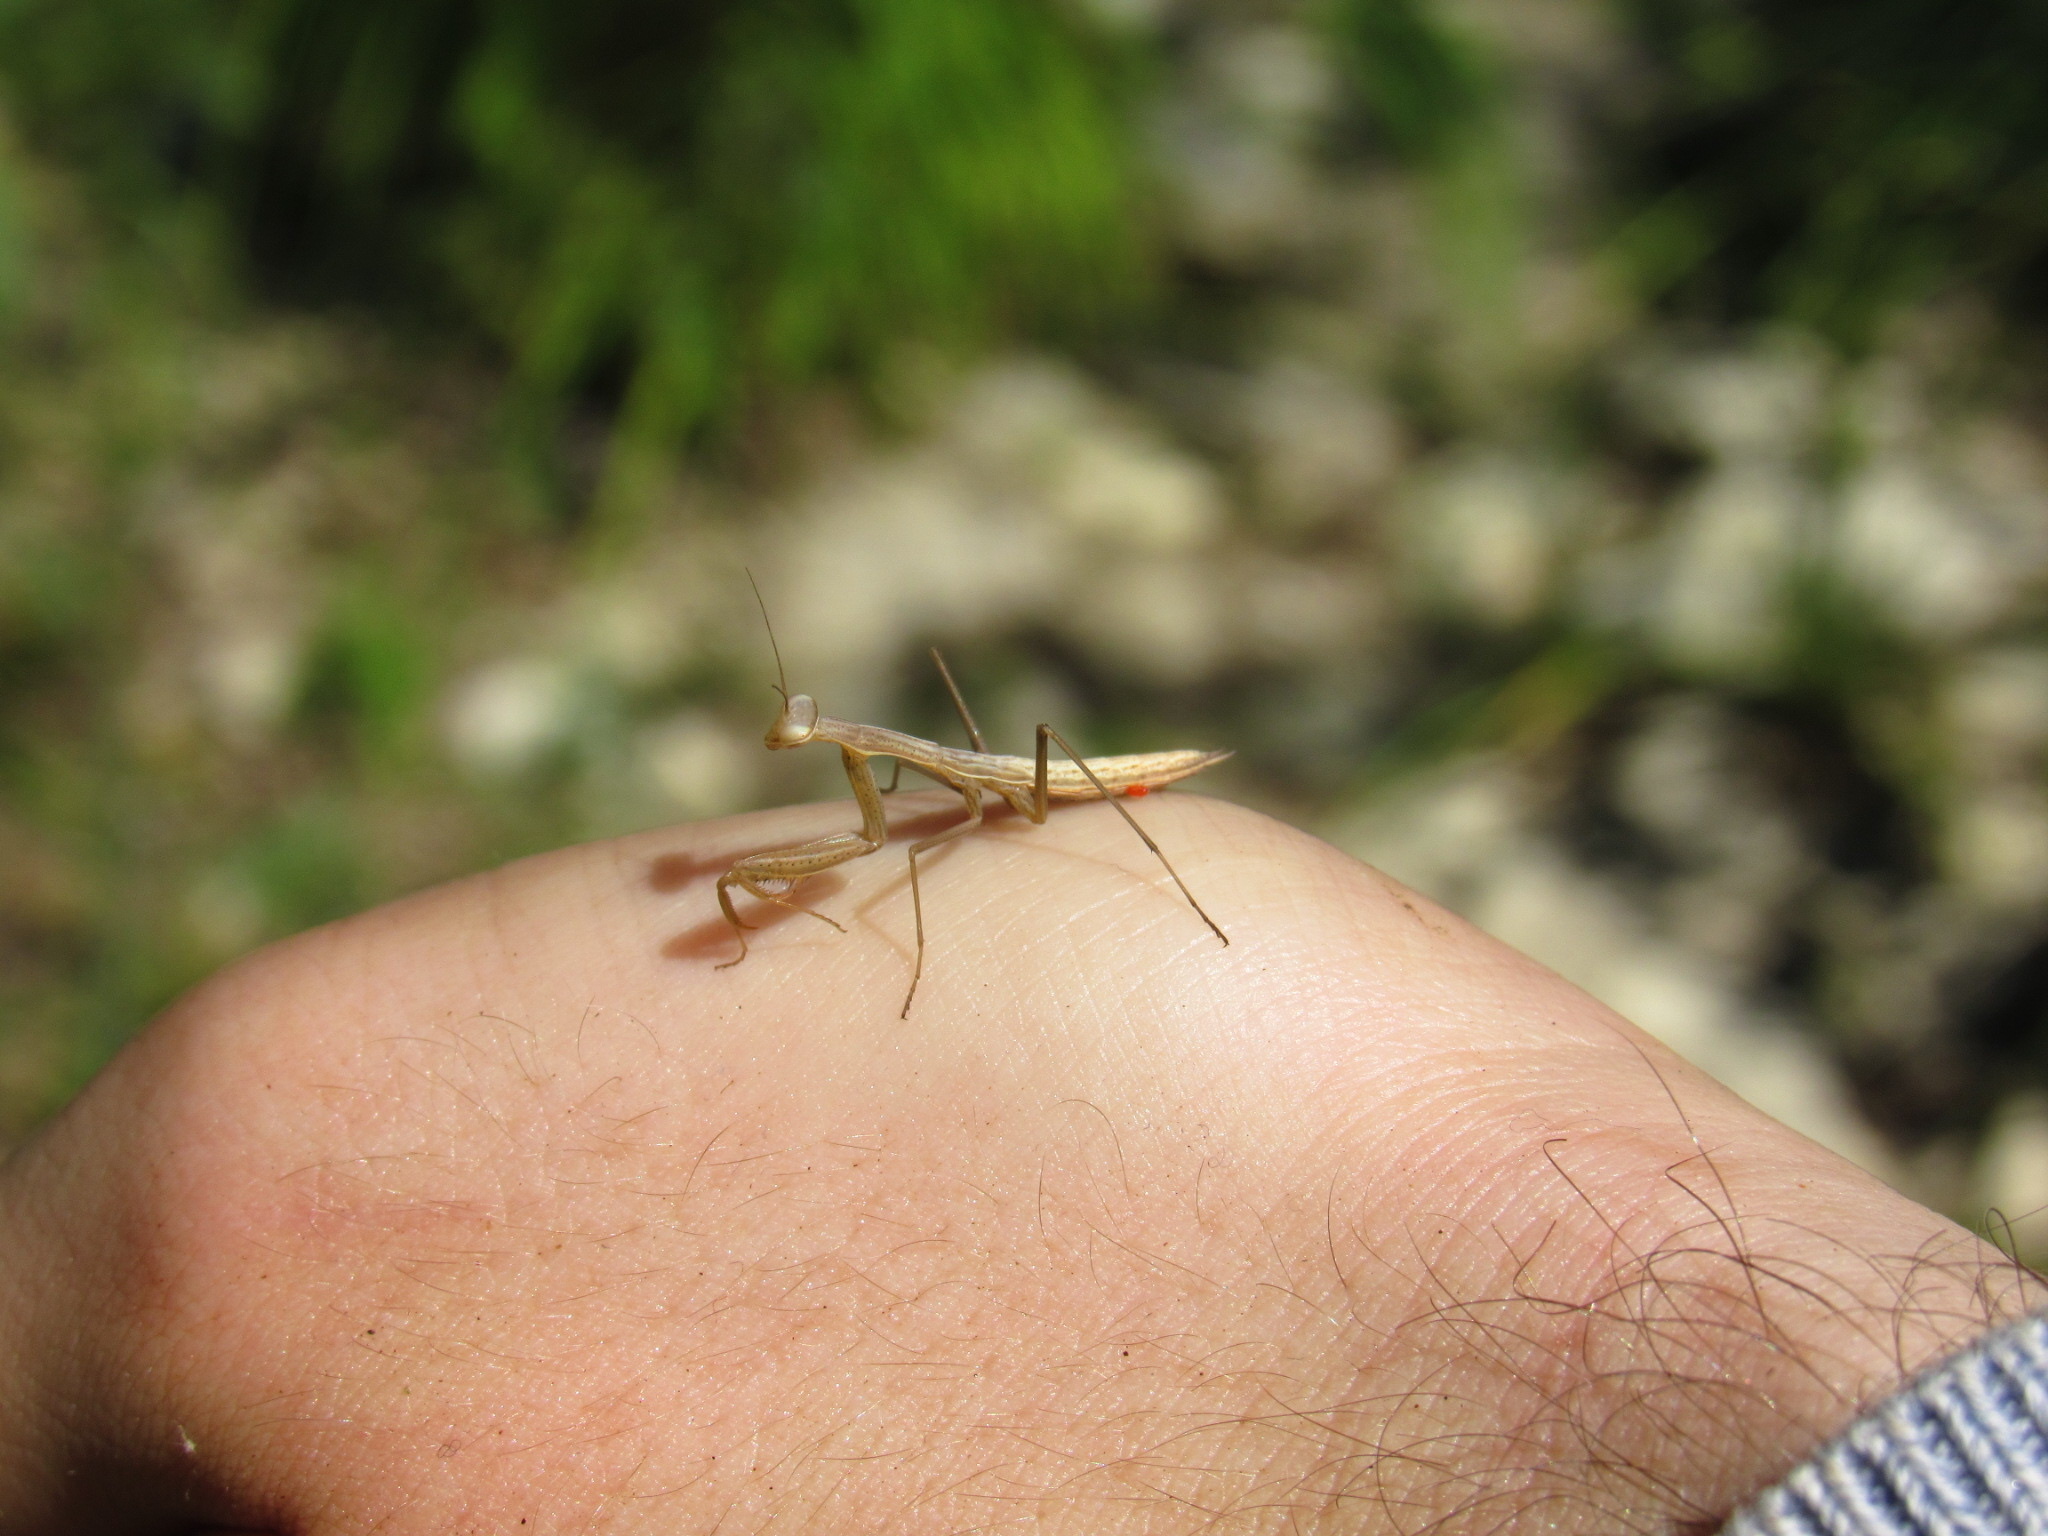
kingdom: Animalia
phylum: Arthropoda
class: Insecta
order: Mantodea
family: Mantidae
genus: Mantis
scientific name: Mantis religiosa
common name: Praying mantis
